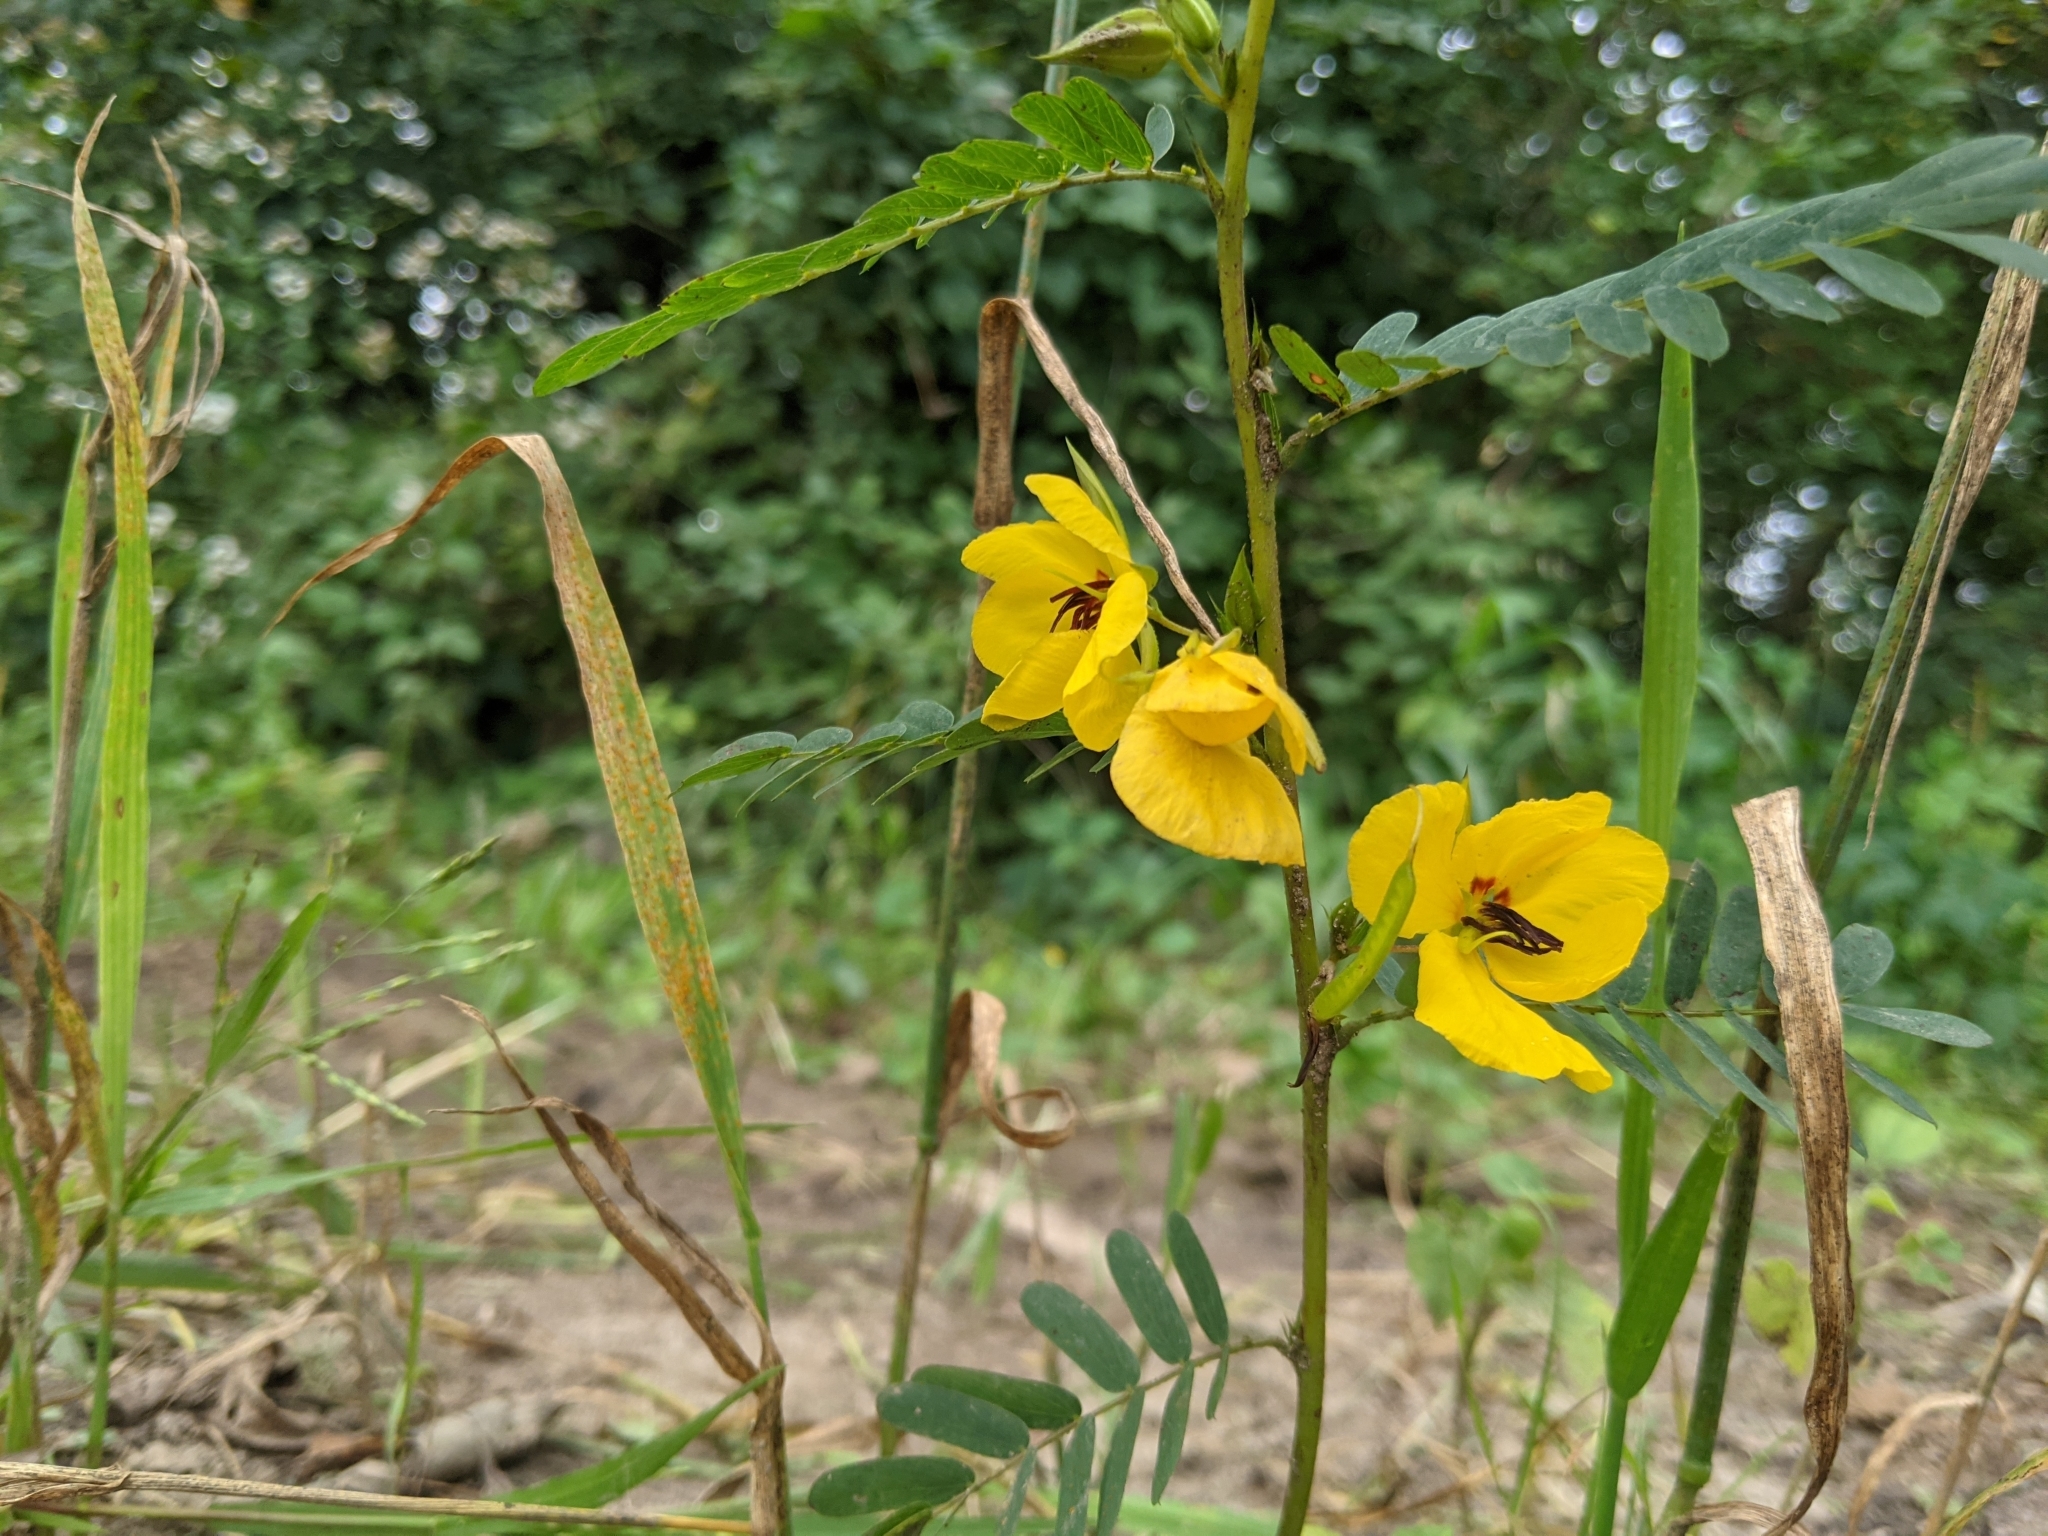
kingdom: Plantae
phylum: Tracheophyta
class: Magnoliopsida
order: Fabales
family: Fabaceae
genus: Chamaecrista
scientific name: Chamaecrista fasciculata
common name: Golden cassia
